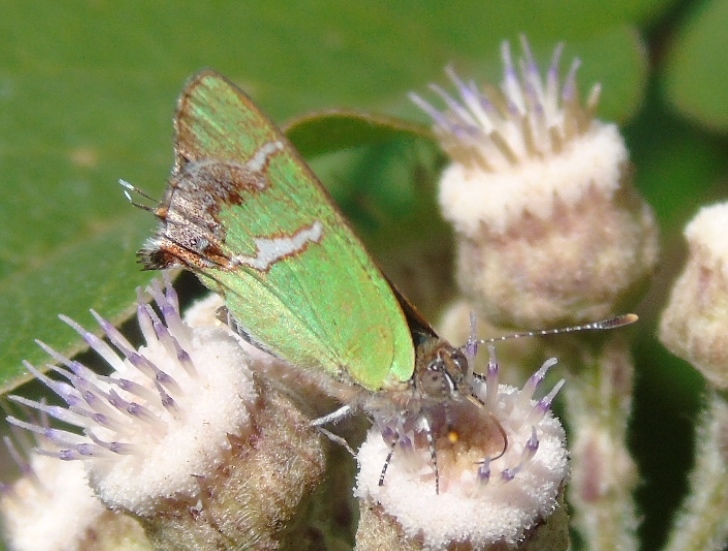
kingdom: Animalia
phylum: Arthropoda
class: Insecta
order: Lepidoptera
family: Lycaenidae
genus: Chlorostrymon
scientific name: Chlorostrymon simaethis
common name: Silver-banded hairstreak
